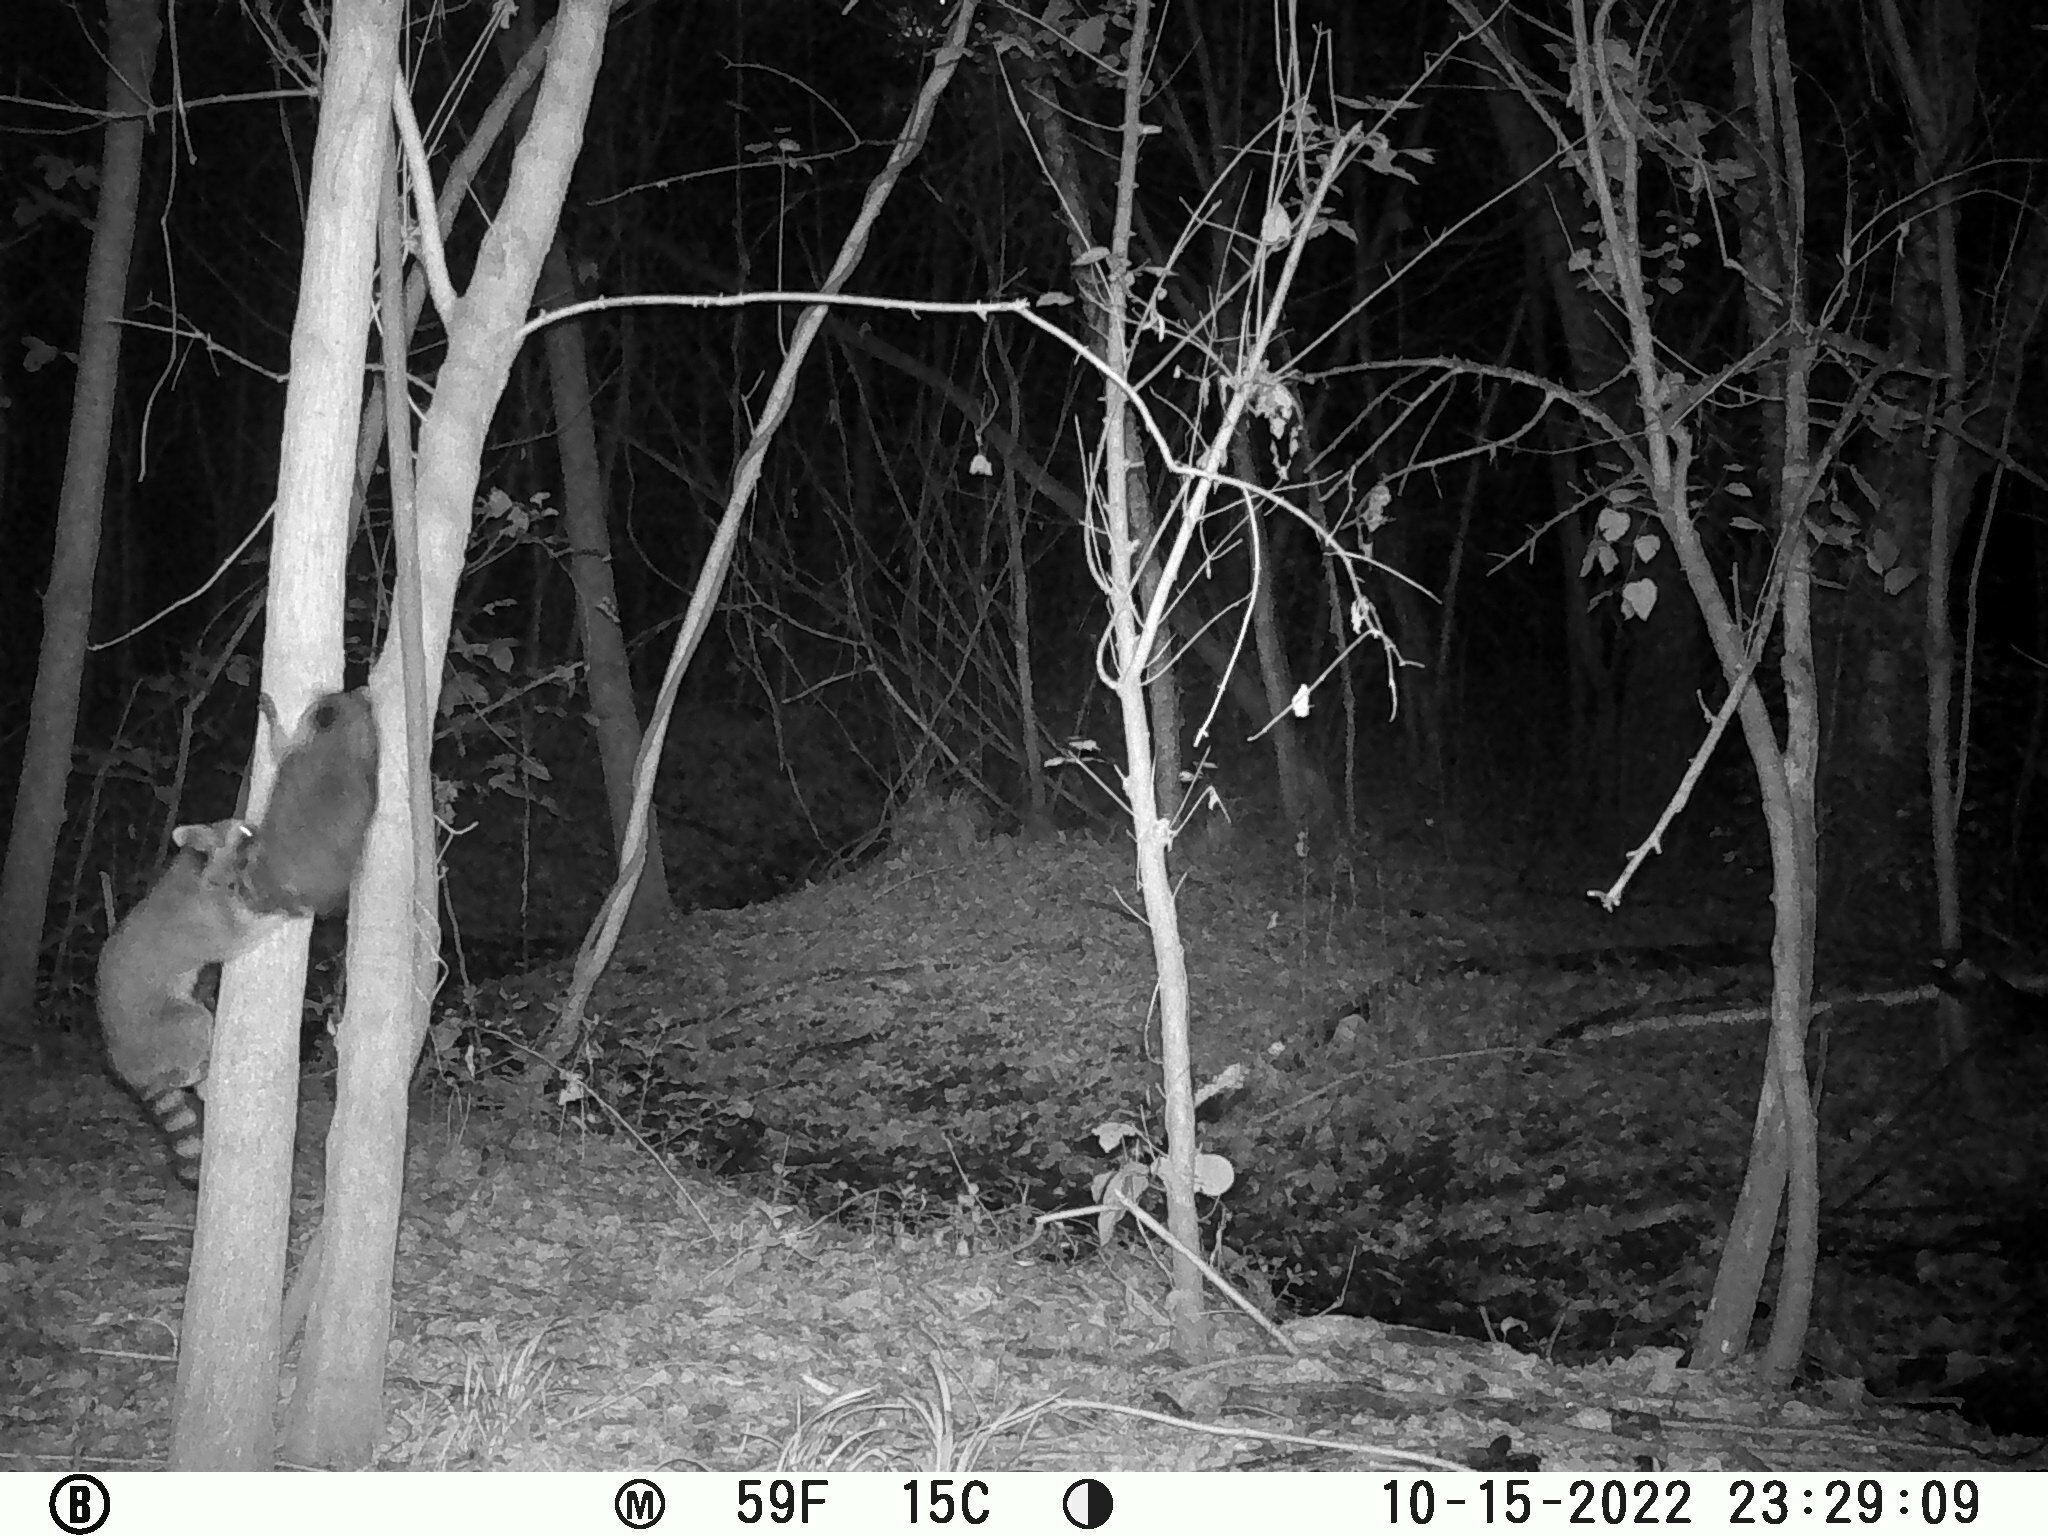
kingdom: Animalia
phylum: Chordata
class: Mammalia
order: Carnivora
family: Procyonidae
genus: Procyon
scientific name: Procyon lotor
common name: Raccoon
